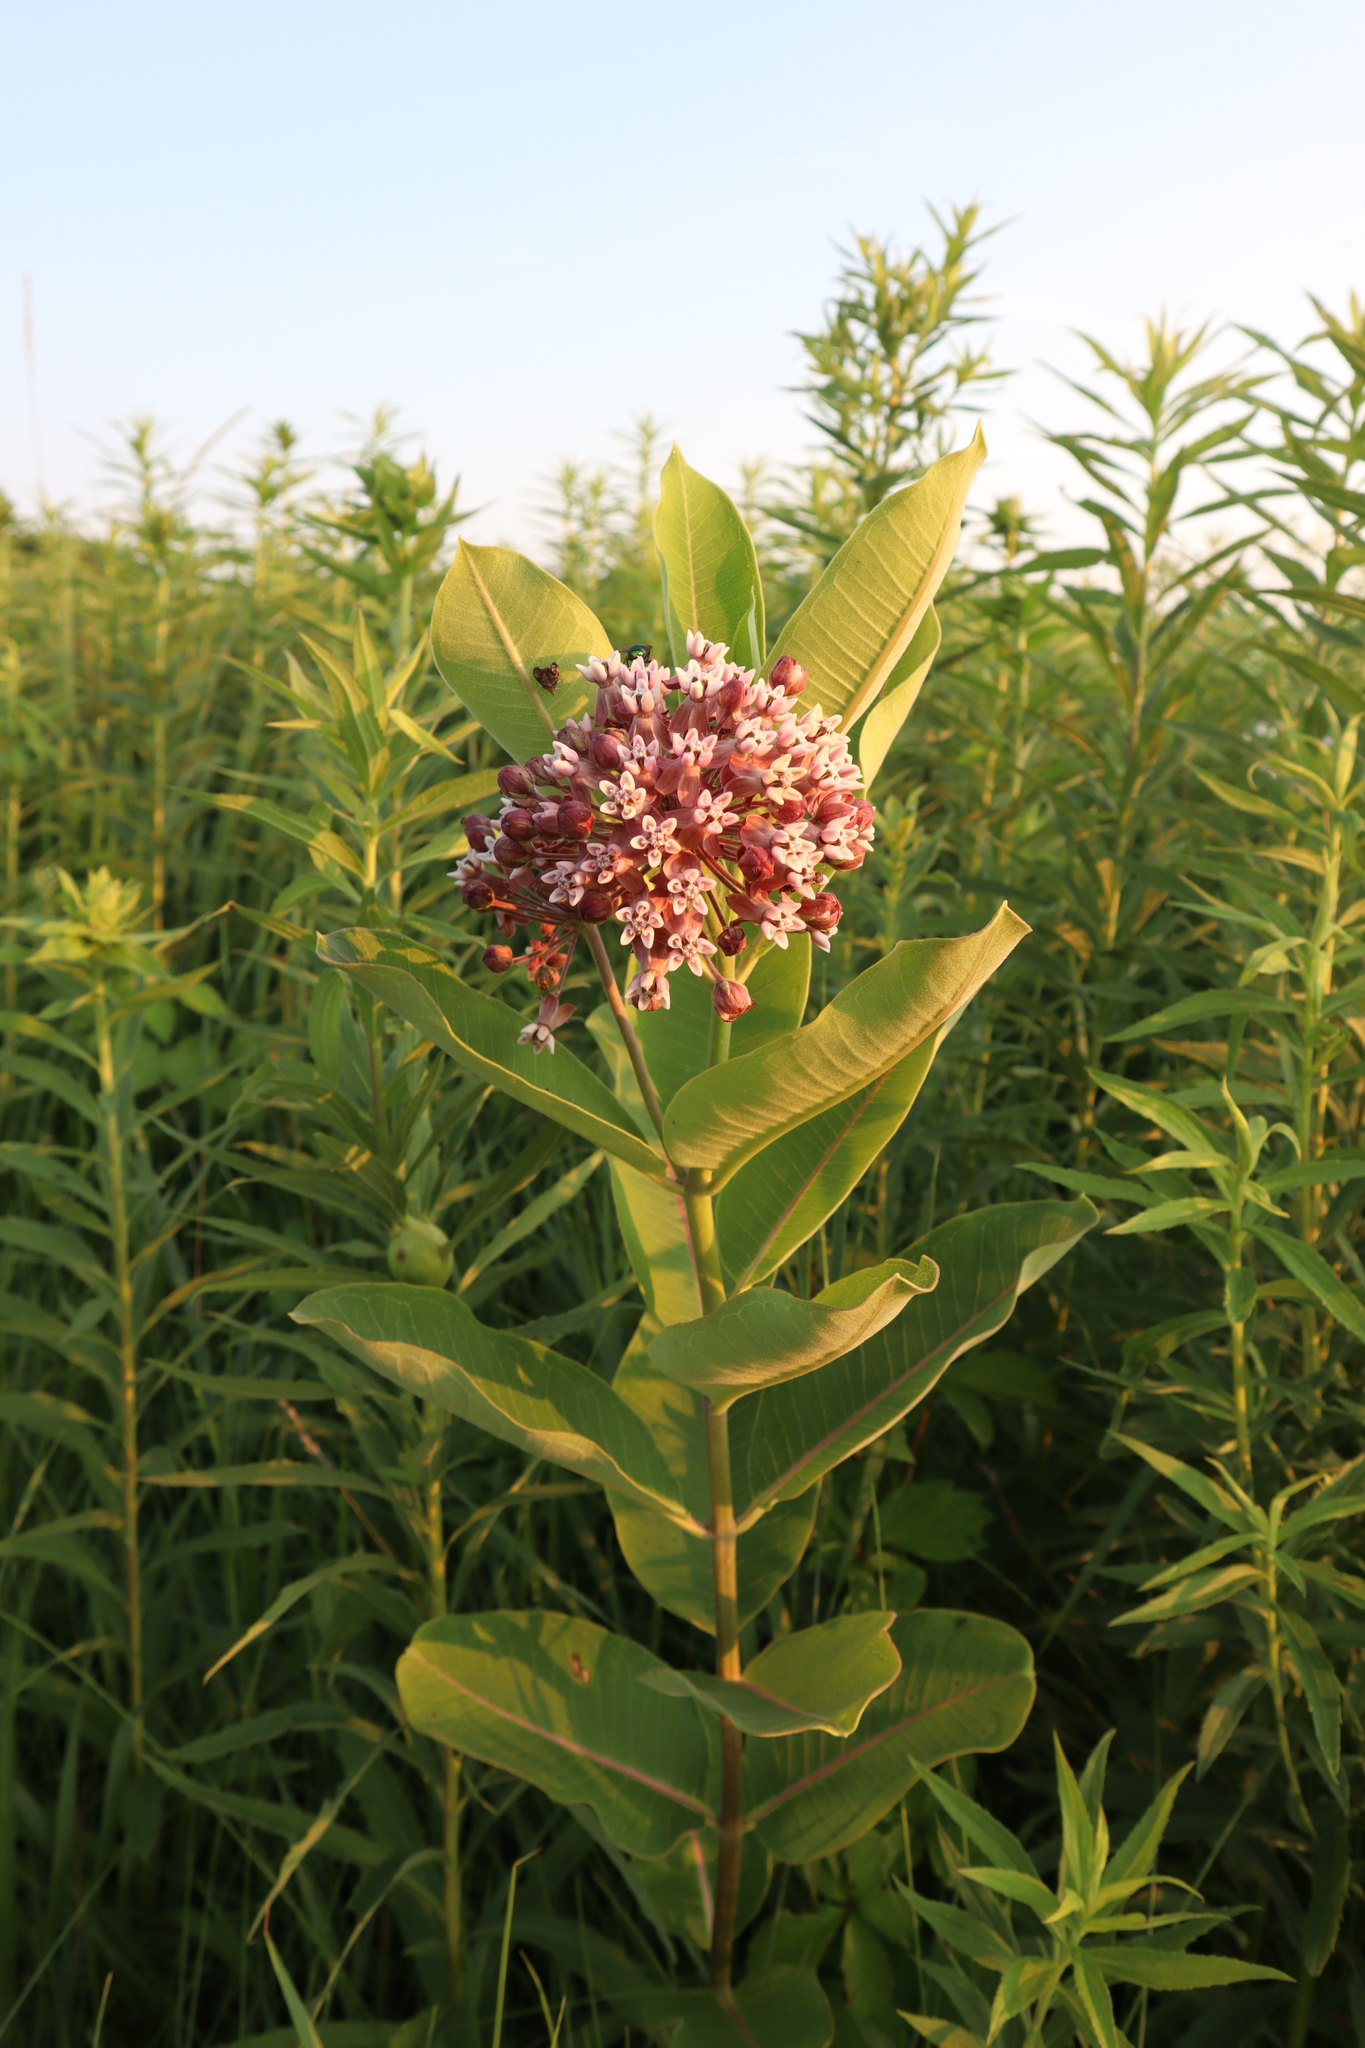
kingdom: Plantae
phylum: Tracheophyta
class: Magnoliopsida
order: Gentianales
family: Apocynaceae
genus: Asclepias
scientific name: Asclepias syriaca
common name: Common milkweed
